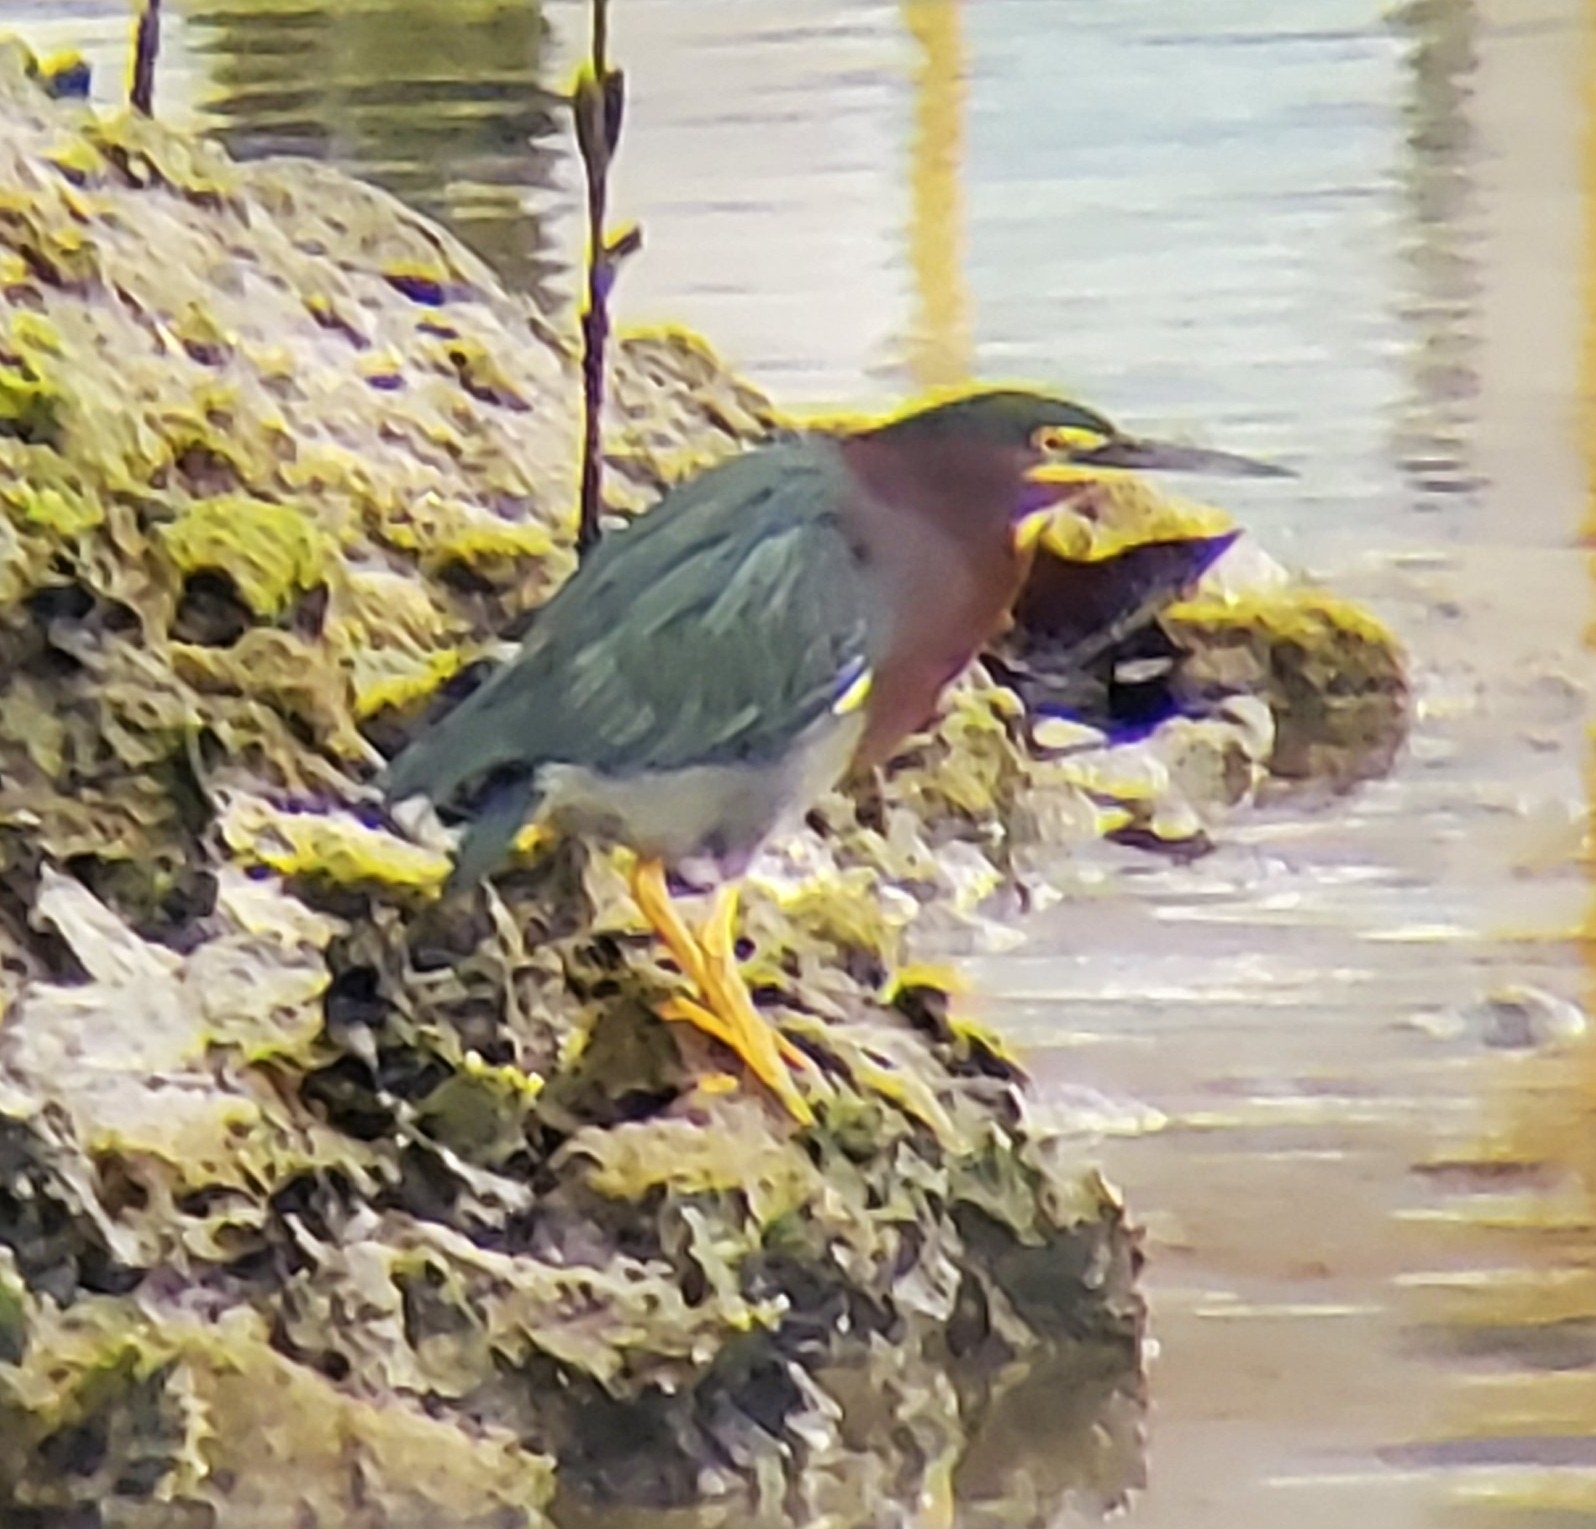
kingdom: Animalia
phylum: Chordata
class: Aves
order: Pelecaniformes
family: Ardeidae
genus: Butorides
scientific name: Butorides virescens
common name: Green heron
